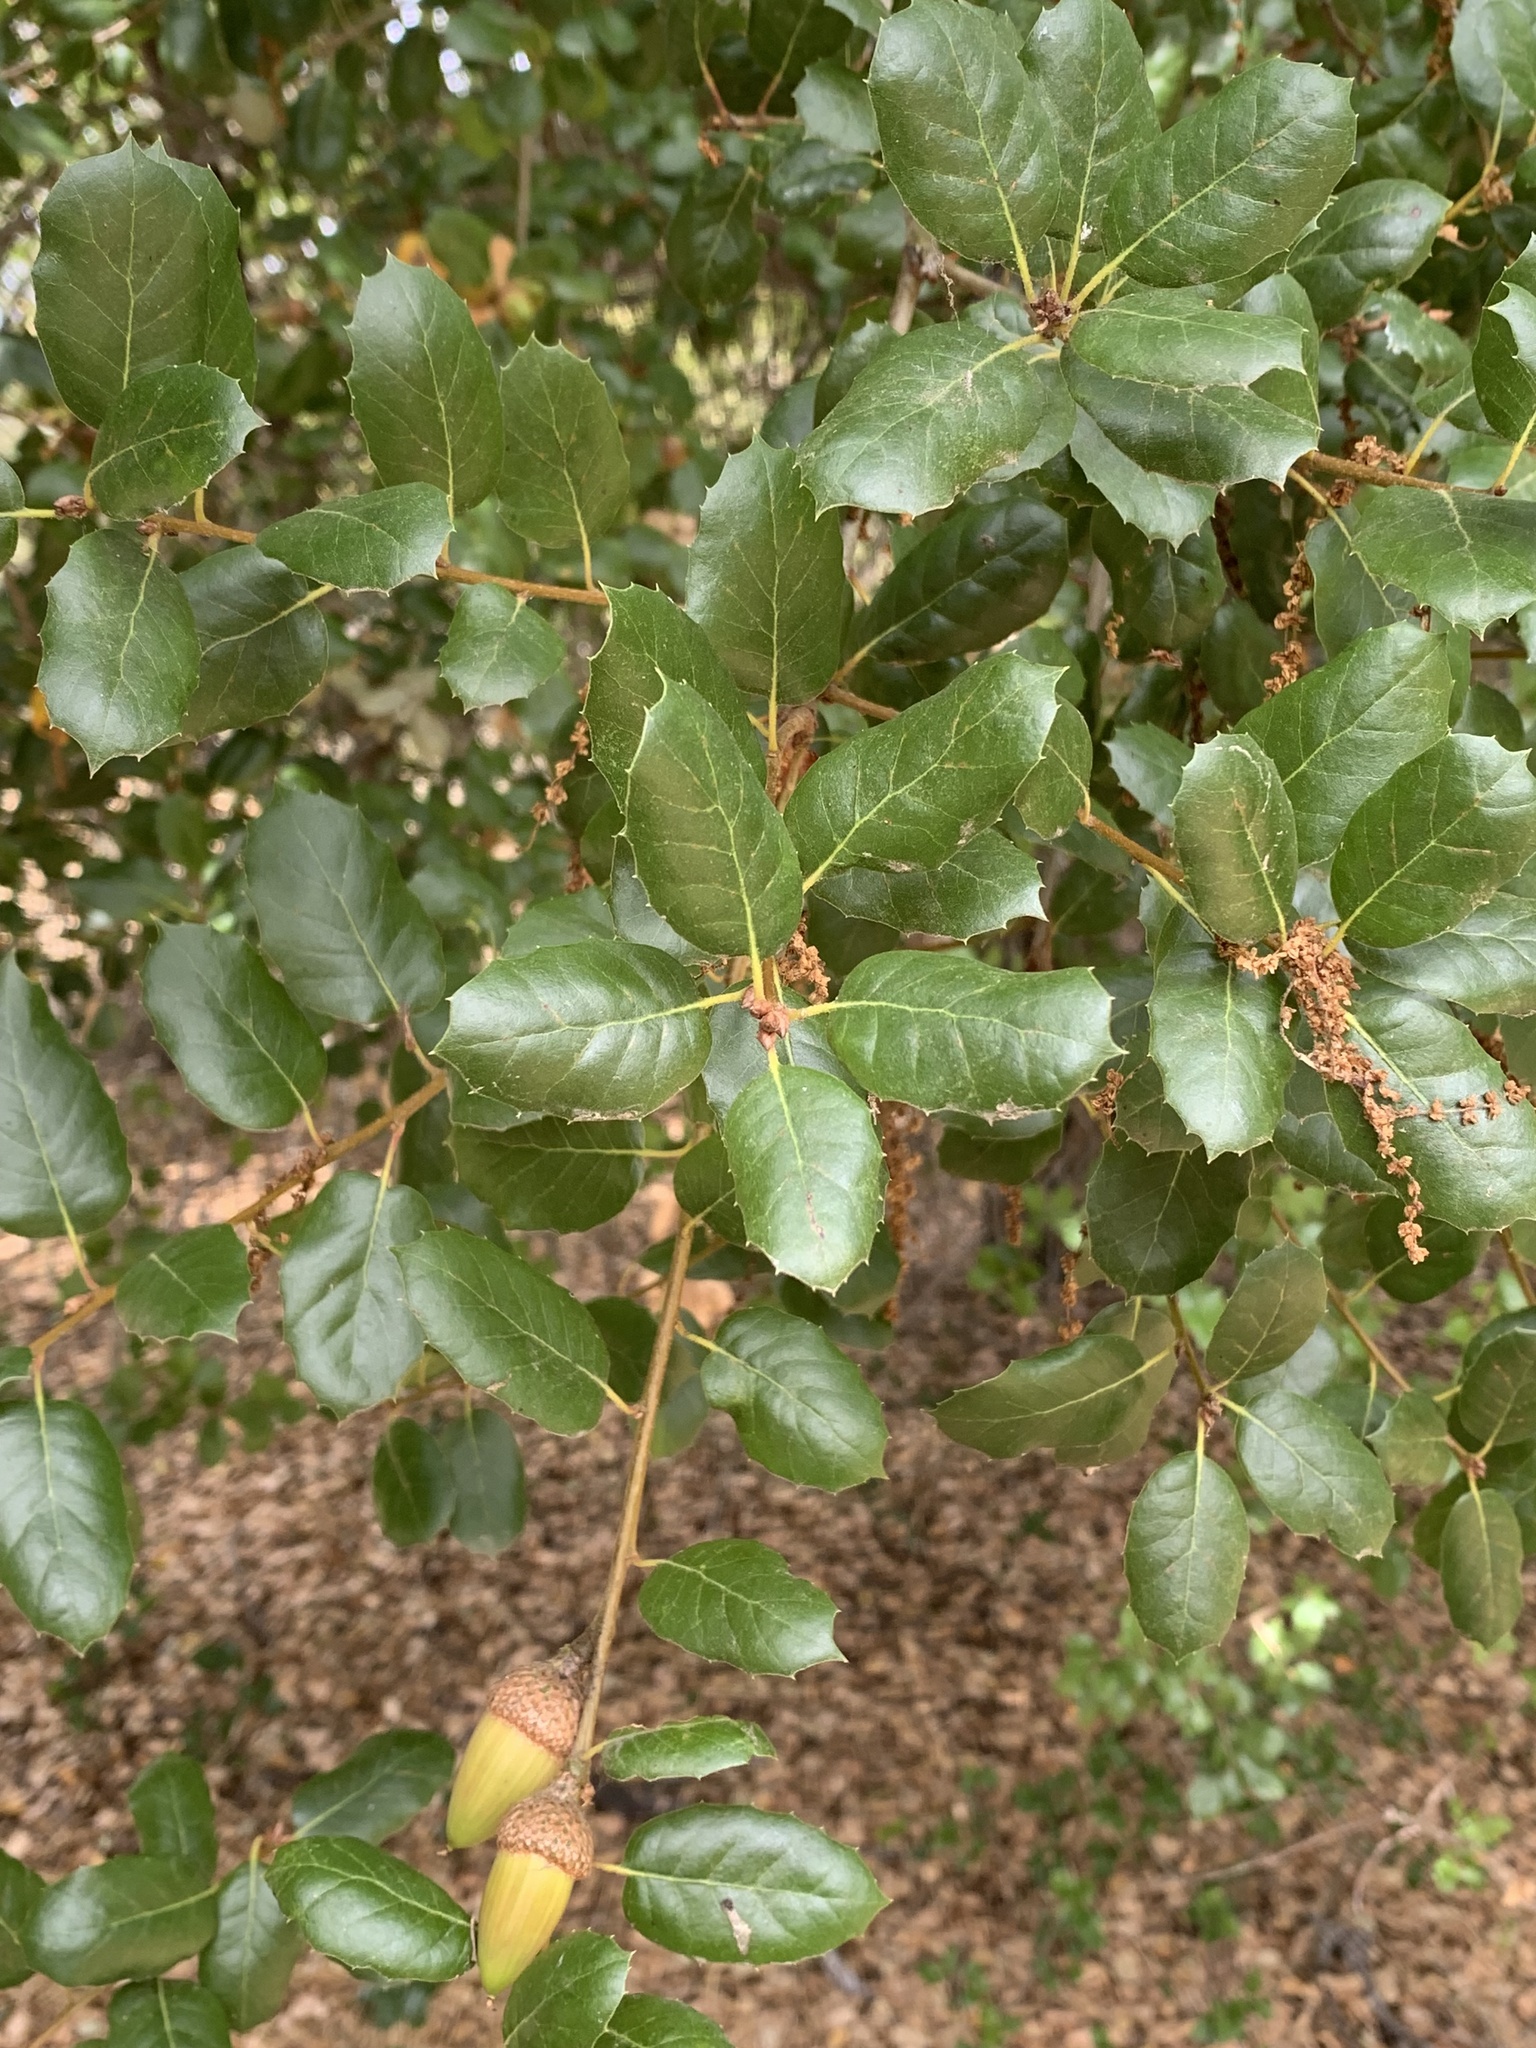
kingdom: Plantae
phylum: Tracheophyta
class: Magnoliopsida
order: Fagales
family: Fagaceae
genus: Quercus
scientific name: Quercus agrifolia
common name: California live oak
